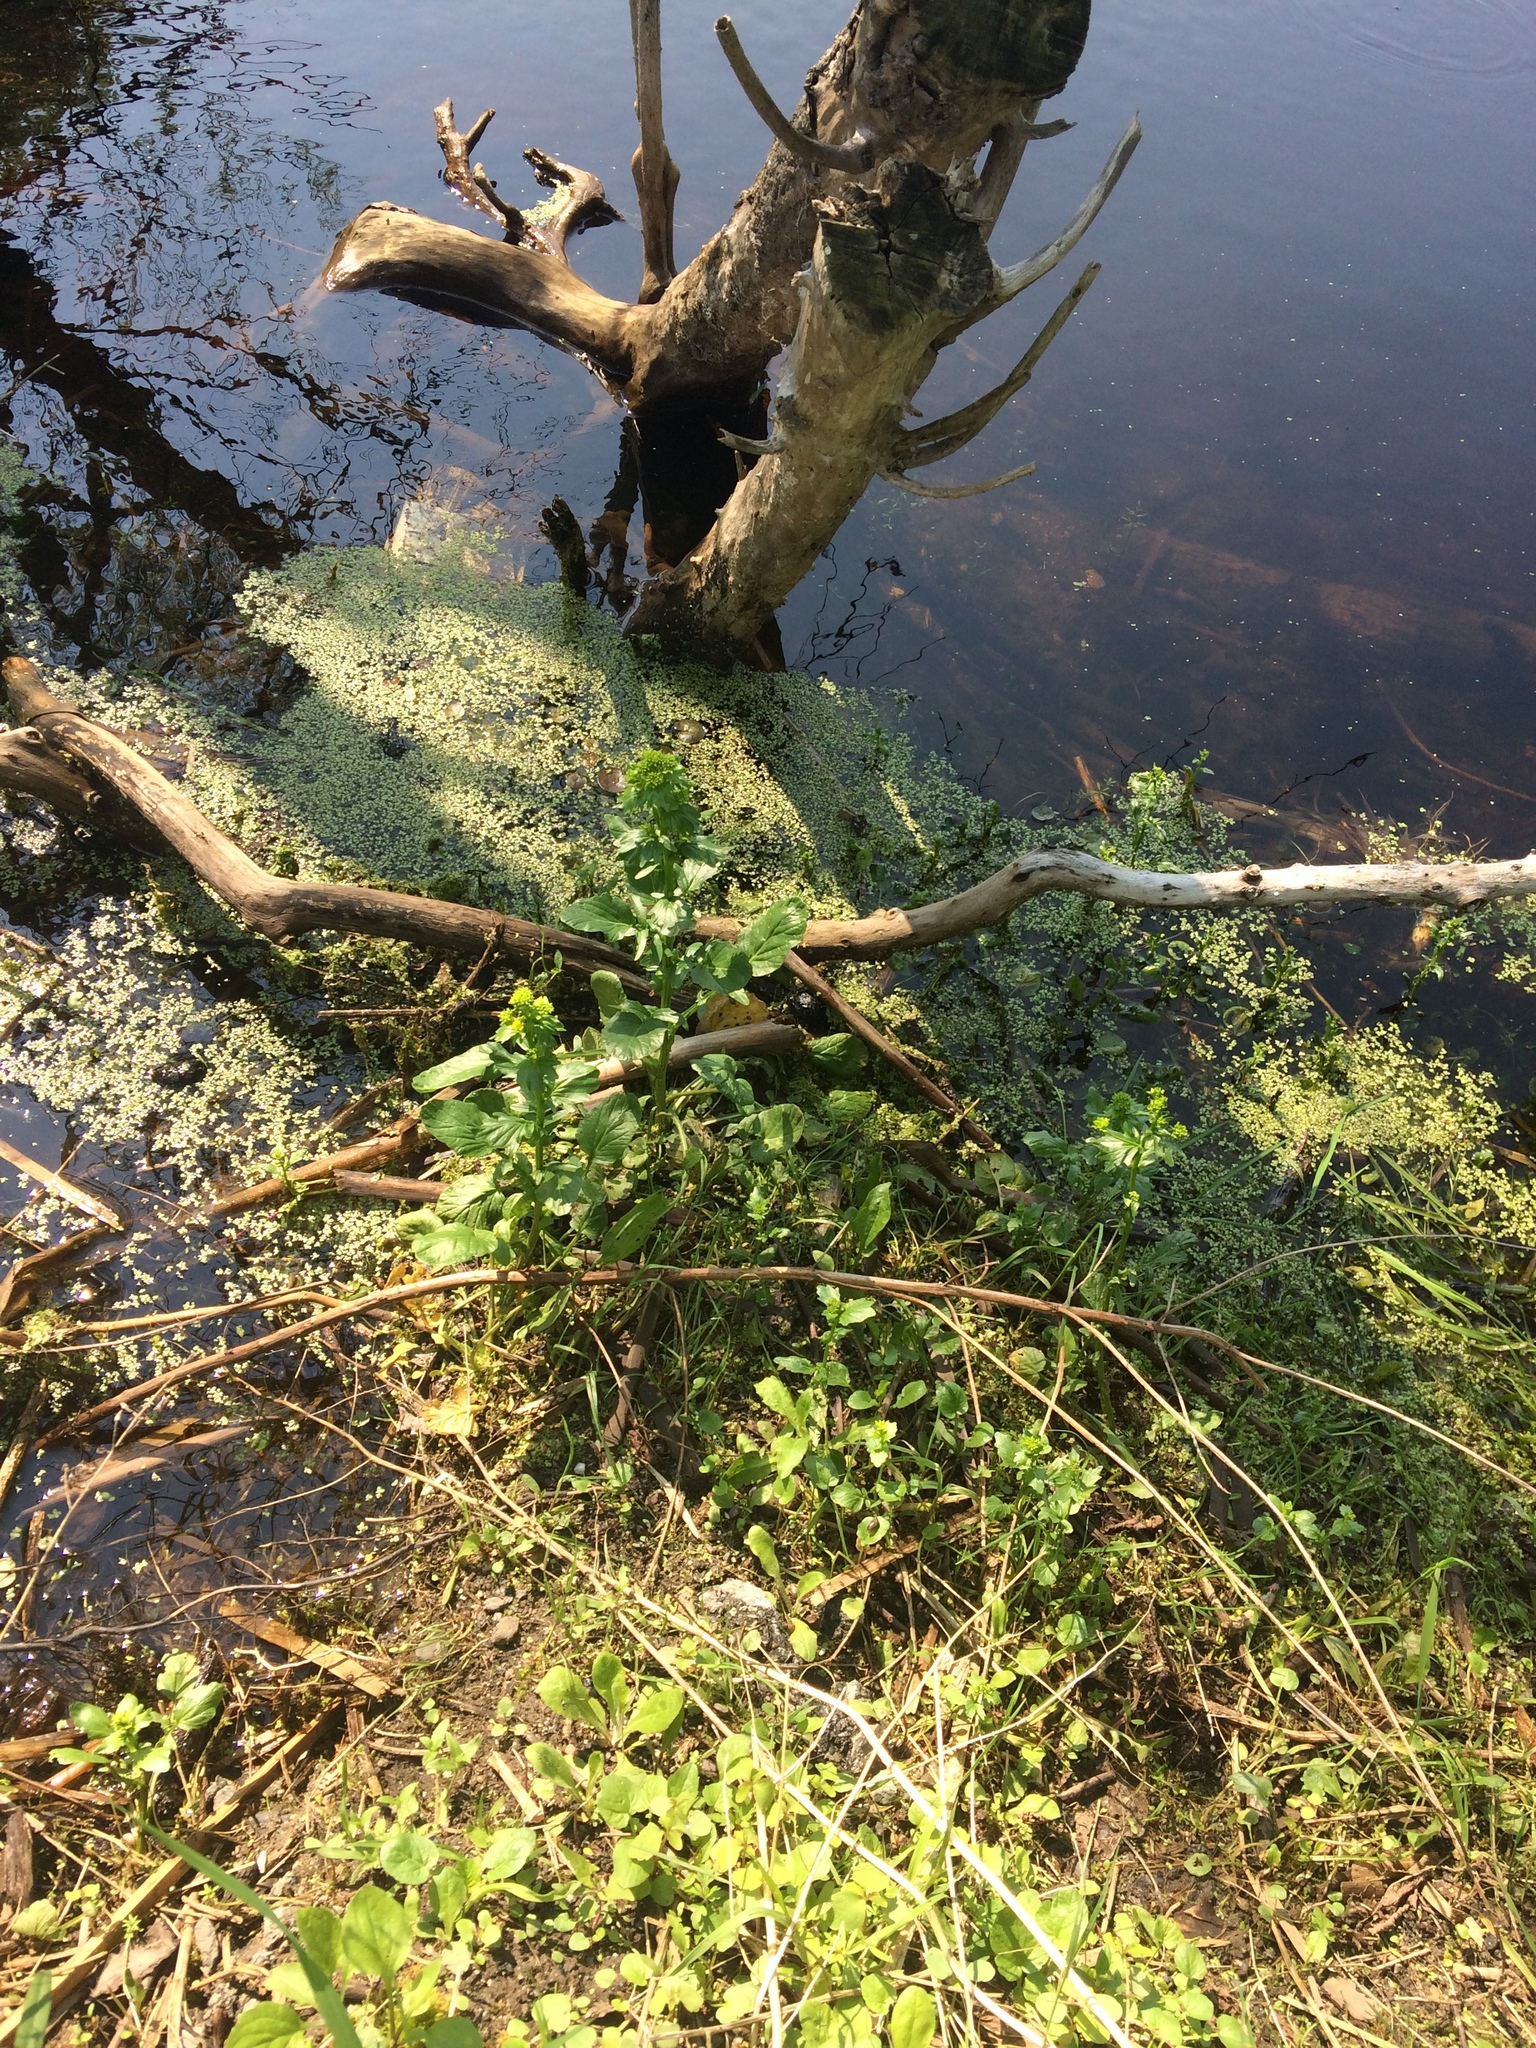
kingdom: Plantae
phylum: Tracheophyta
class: Magnoliopsida
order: Brassicales
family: Brassicaceae
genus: Barbarea
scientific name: Barbarea vulgaris
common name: Cressy-greens
